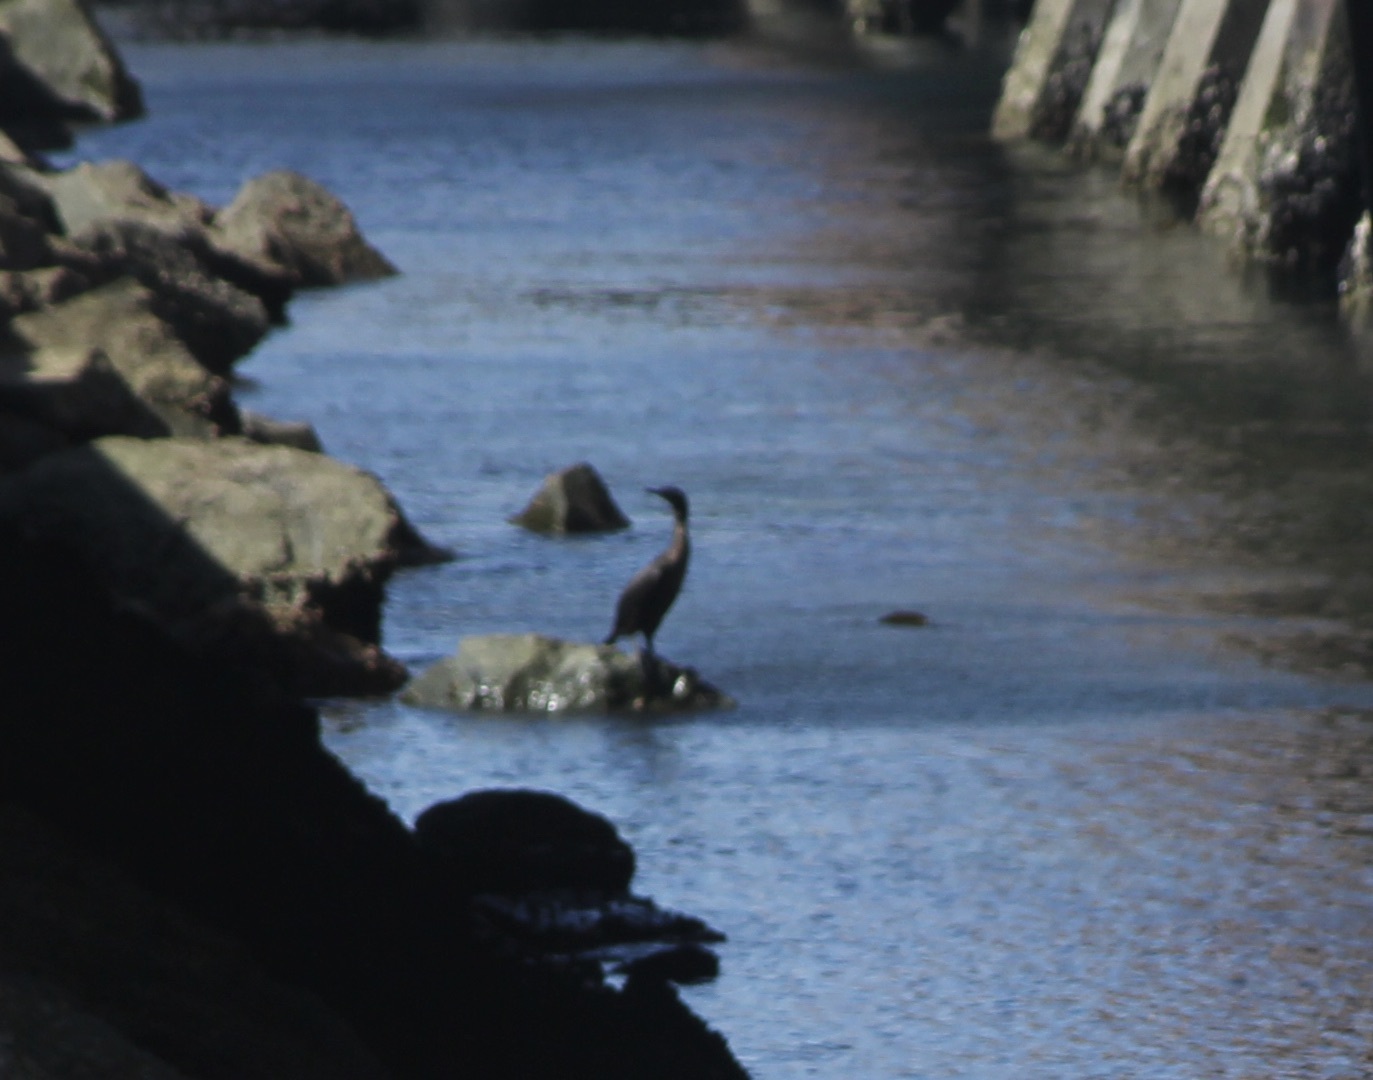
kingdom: Animalia
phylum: Chordata
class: Aves
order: Suliformes
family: Phalacrocoracidae
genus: Urile
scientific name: Urile penicillatus
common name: Brandt's cormorant
